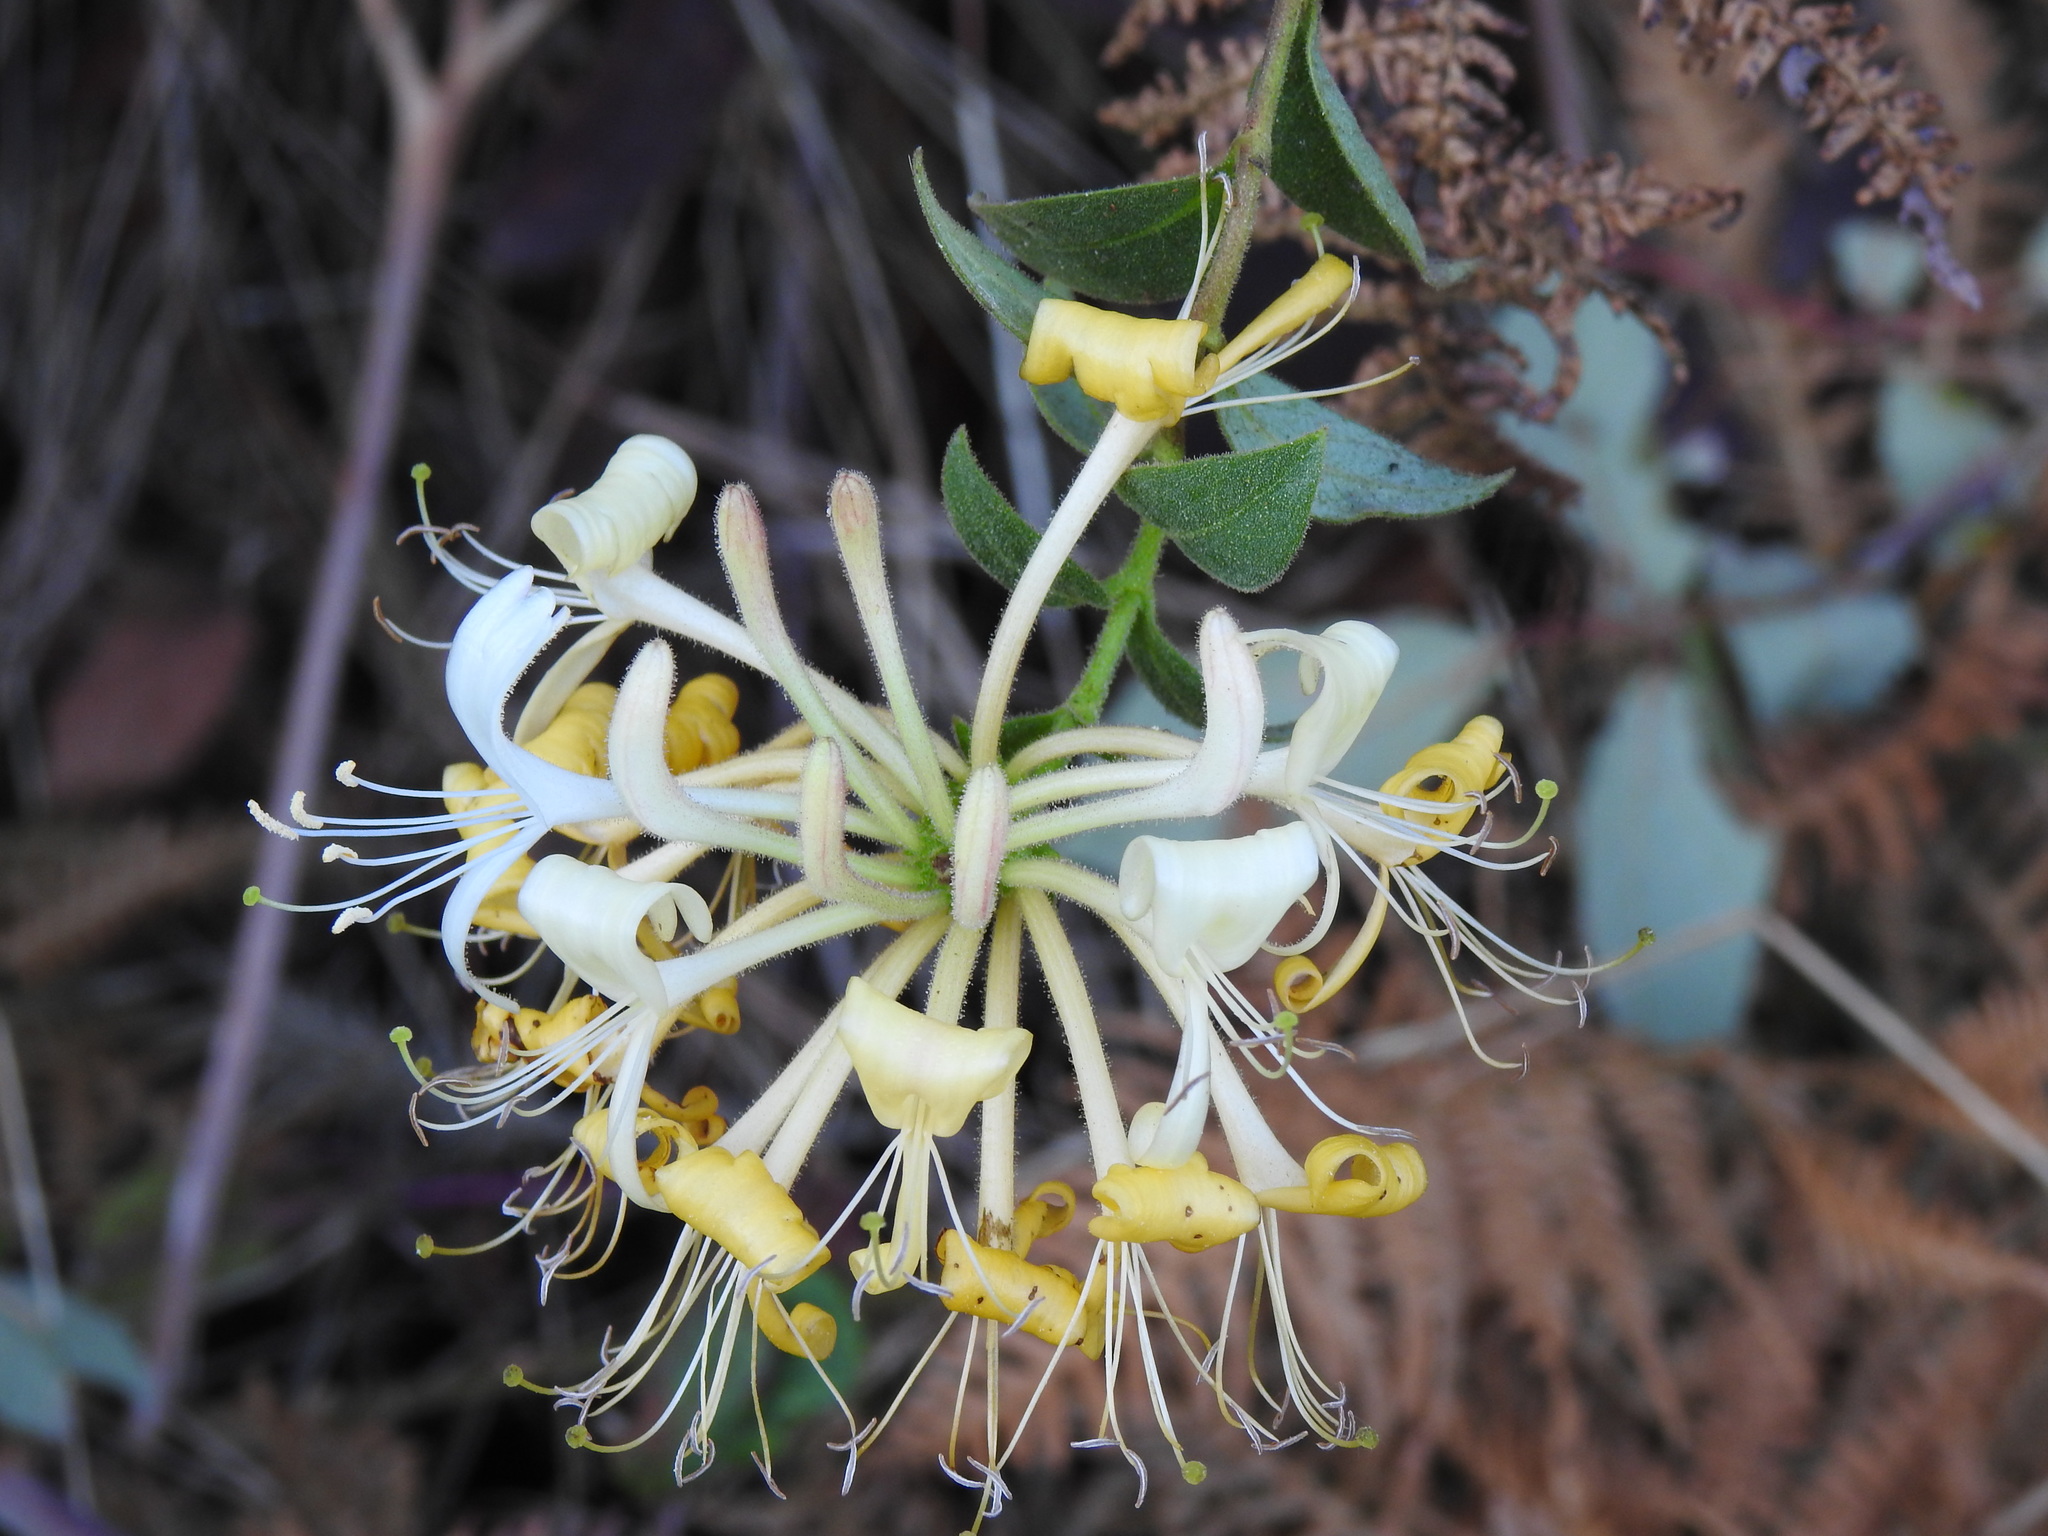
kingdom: Plantae
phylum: Tracheophyta
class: Magnoliopsida
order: Dipsacales
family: Caprifoliaceae
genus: Lonicera
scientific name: Lonicera periclymenum
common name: European honeysuckle
